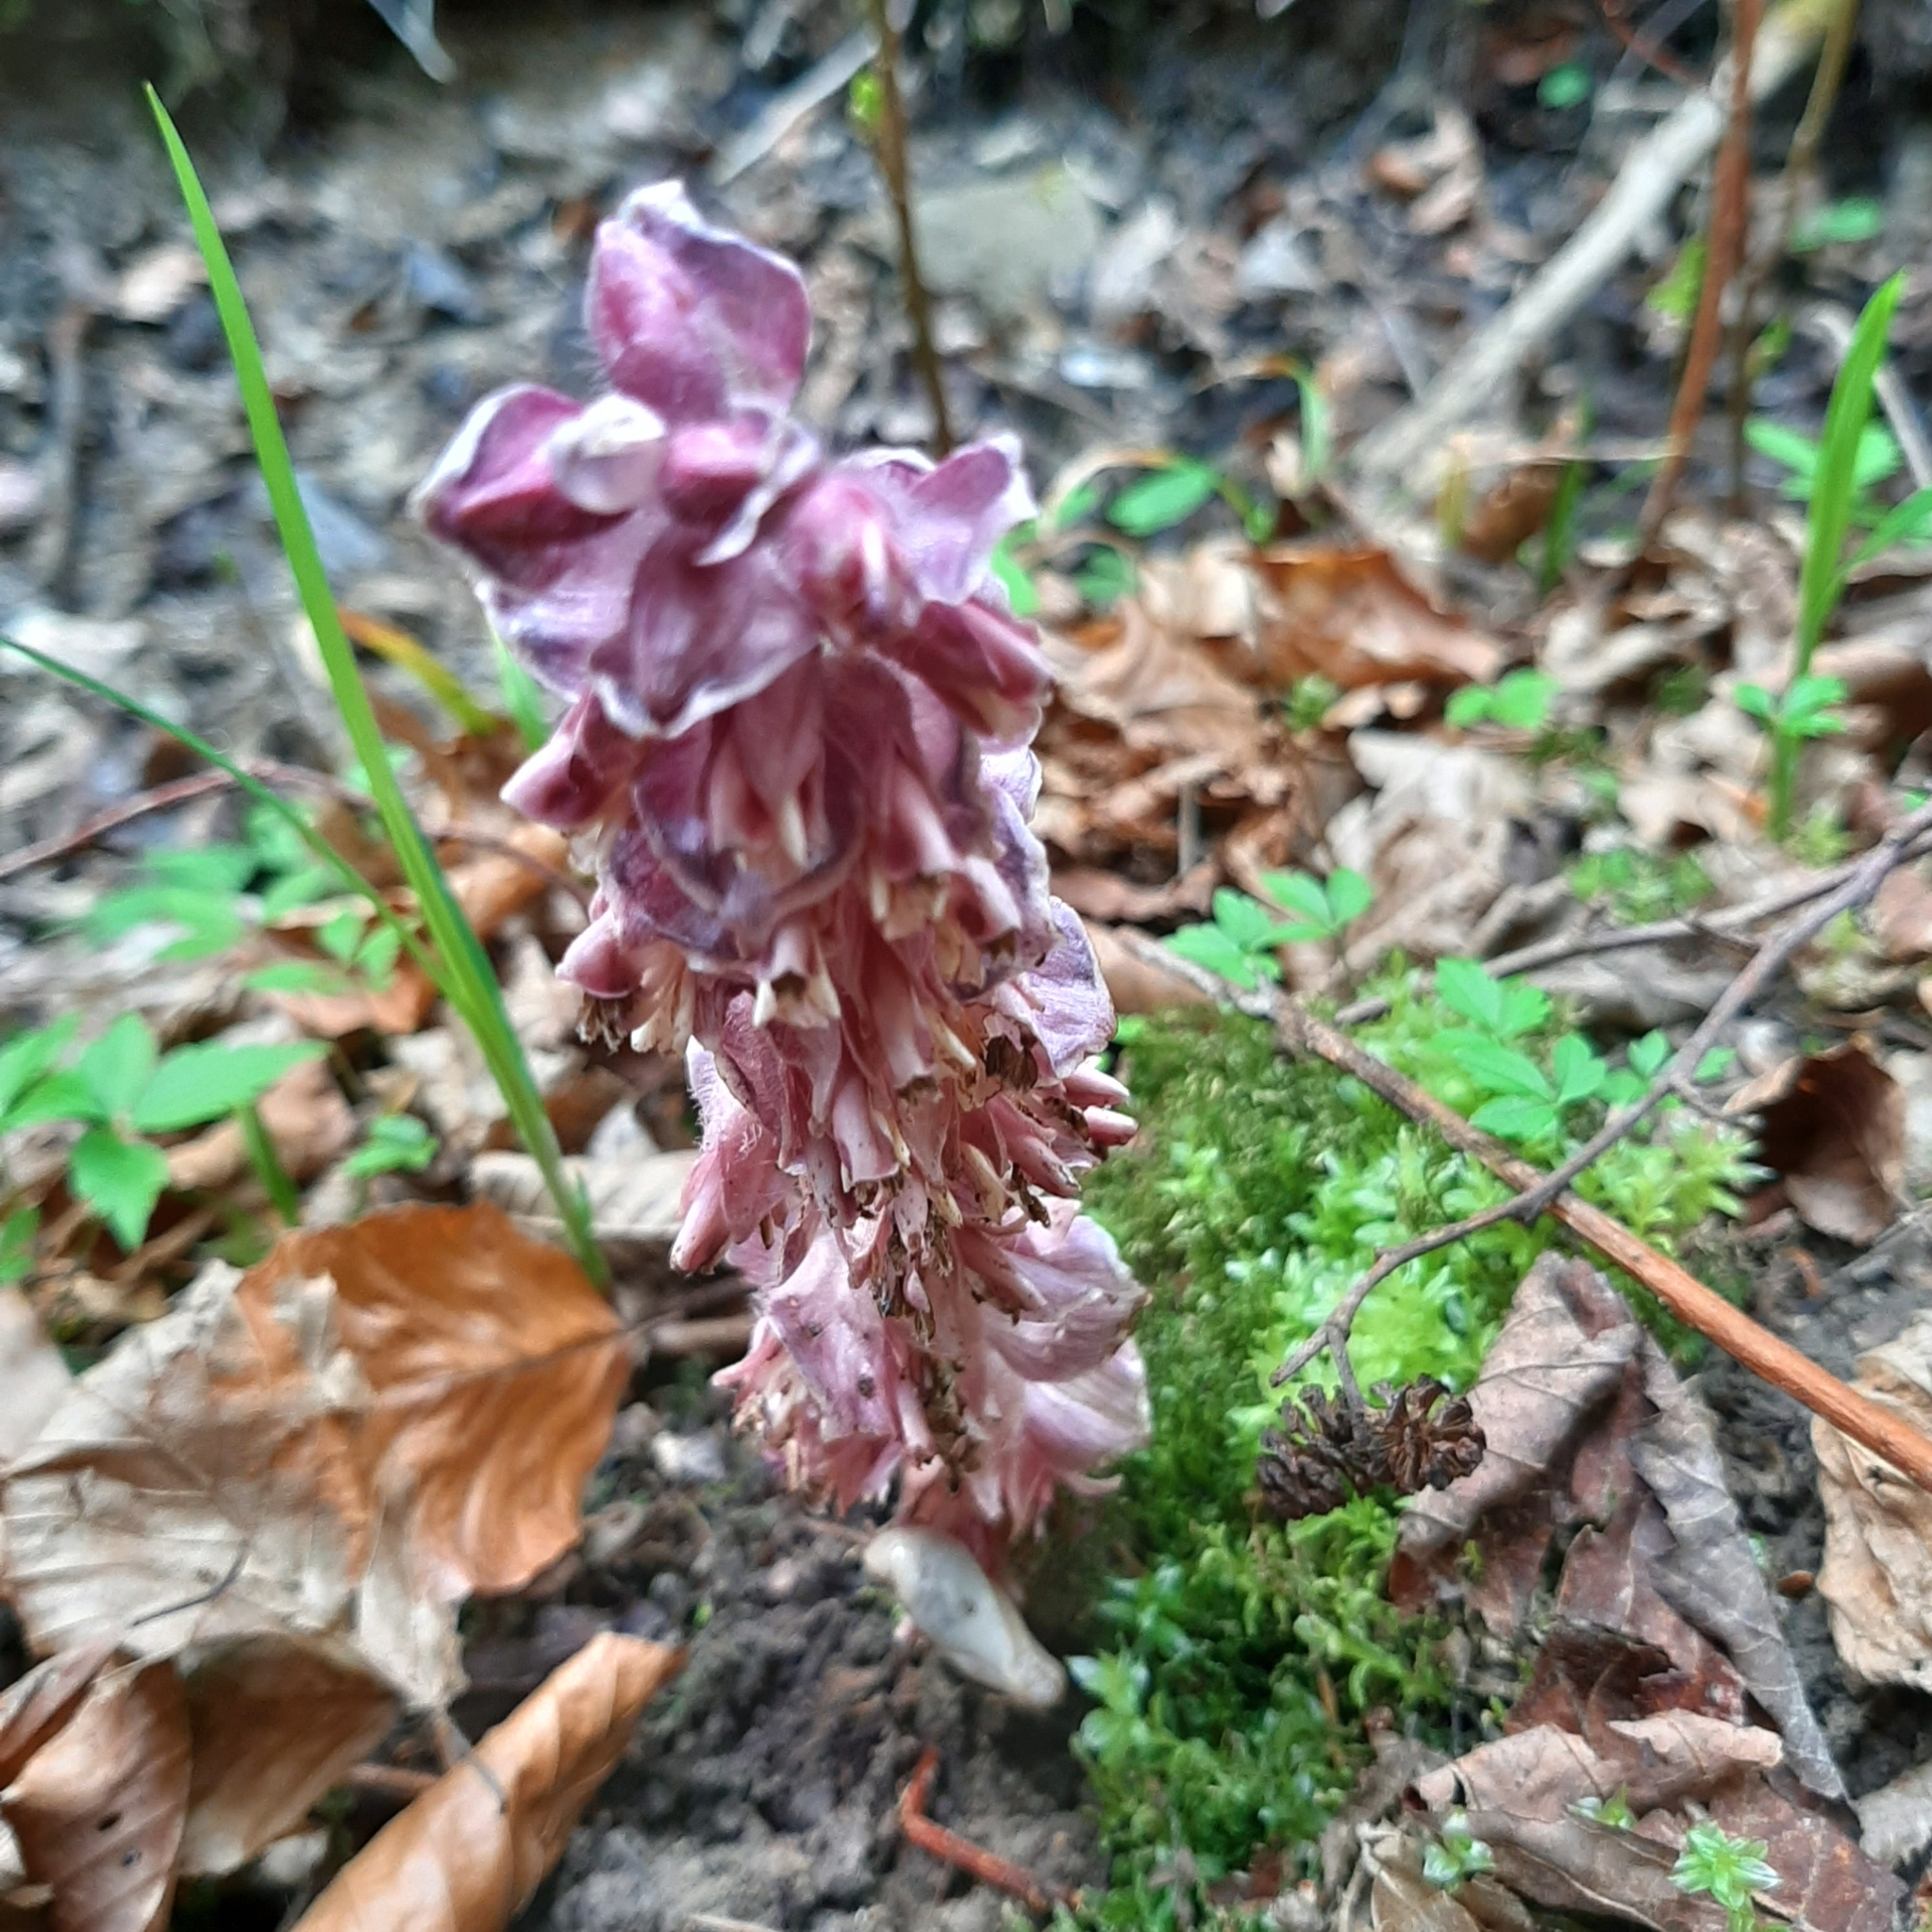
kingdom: Plantae
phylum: Tracheophyta
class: Magnoliopsida
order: Lamiales
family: Orobanchaceae
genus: Lathraea
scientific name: Lathraea squamaria
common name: Toothwort
